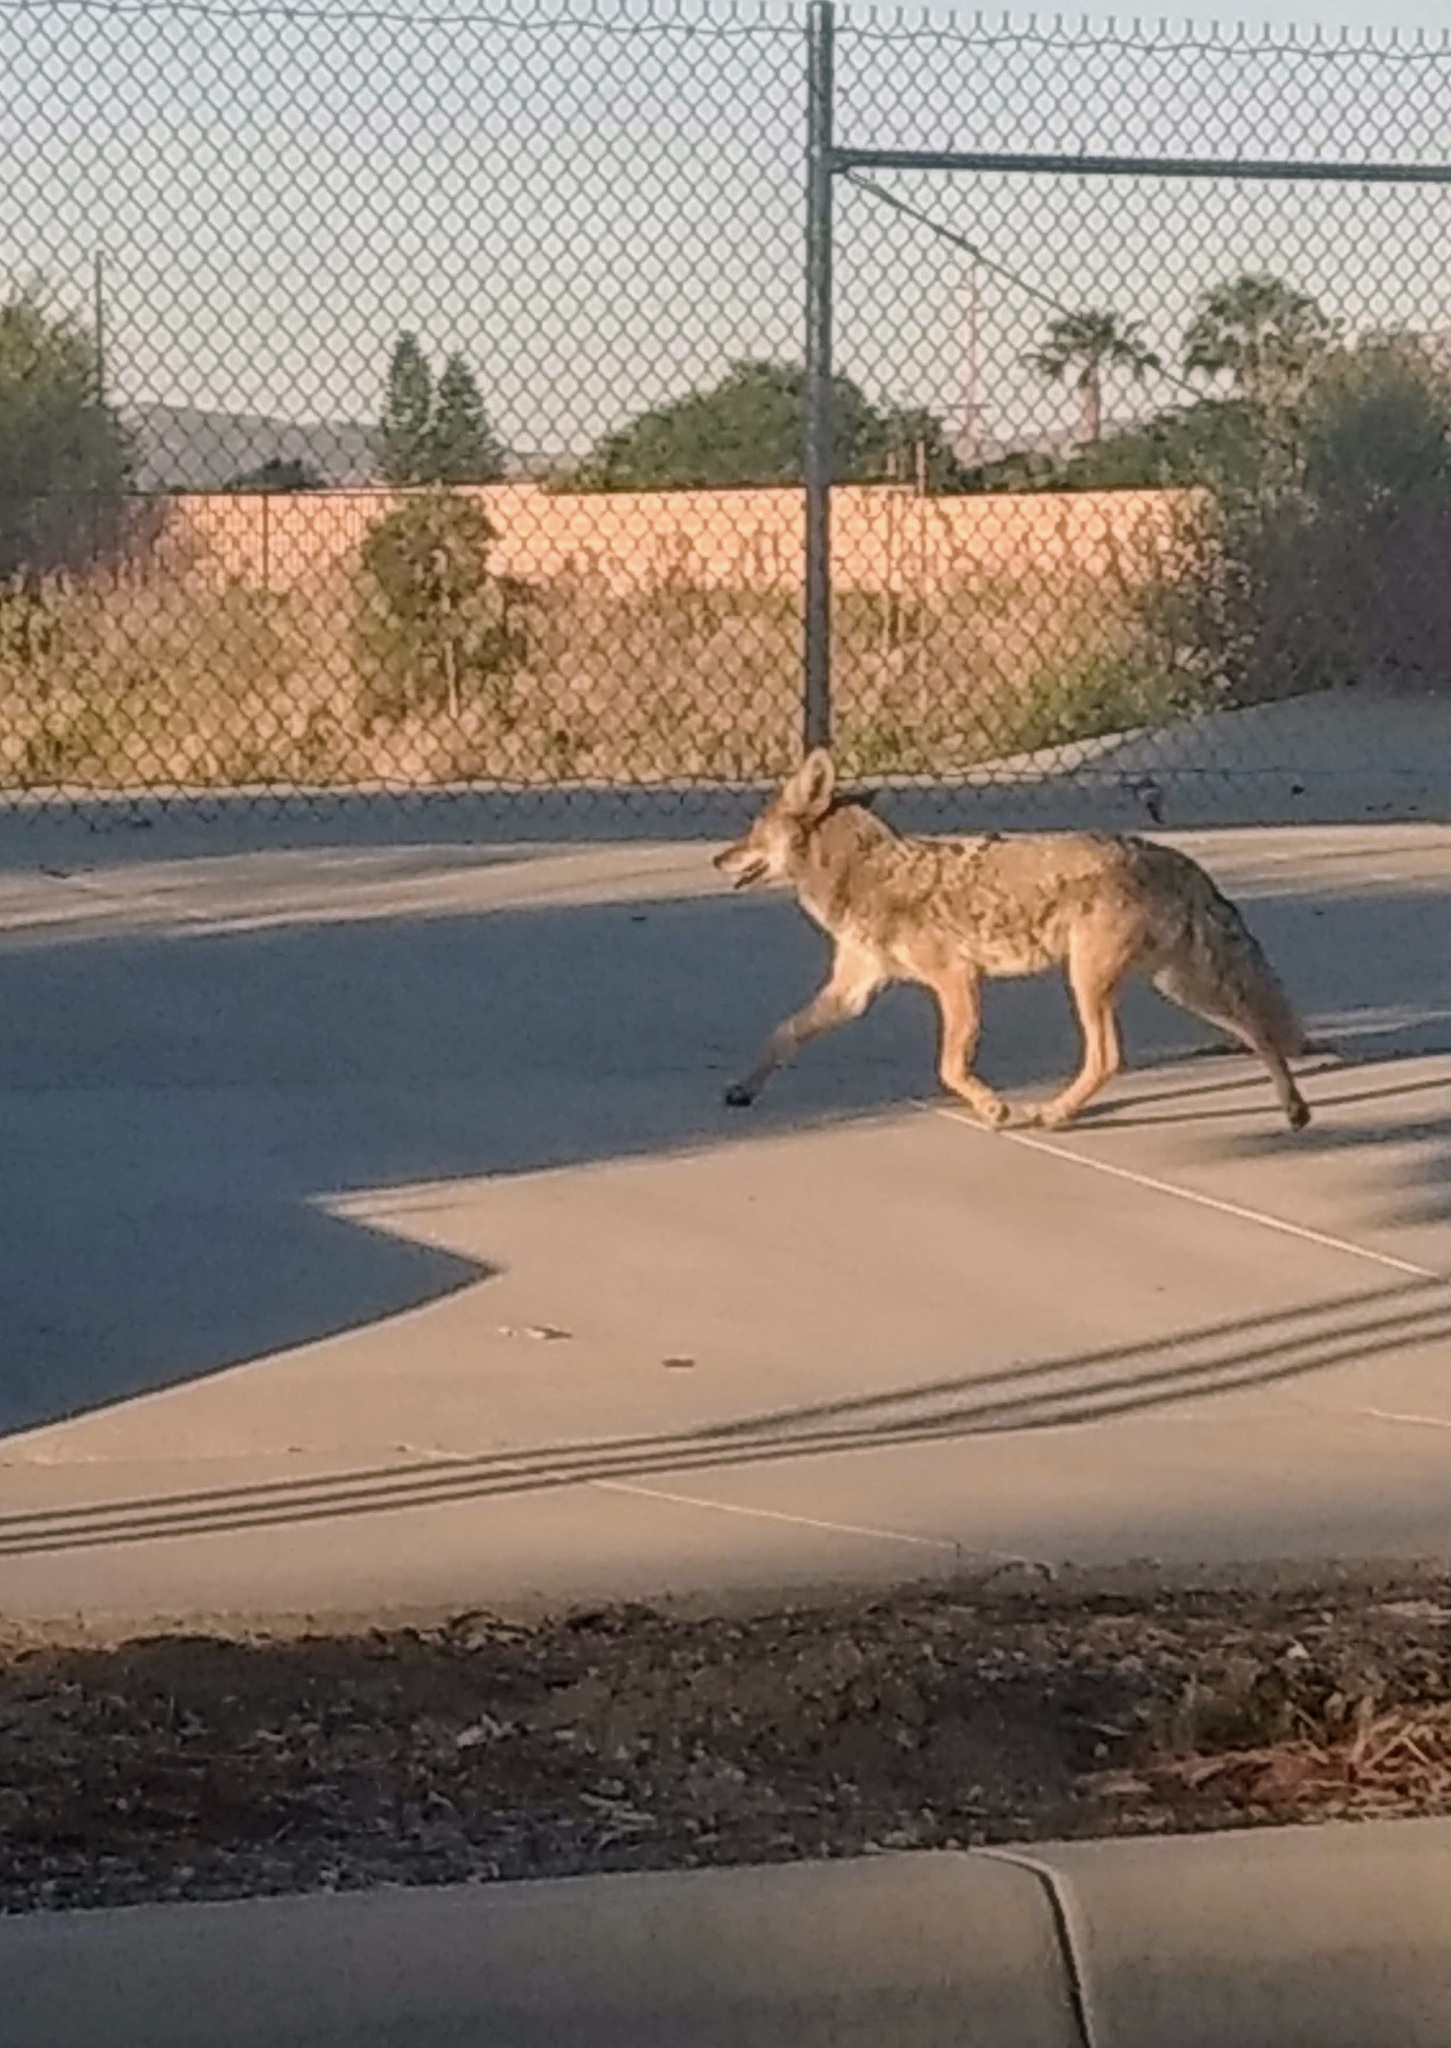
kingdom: Animalia
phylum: Chordata
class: Mammalia
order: Carnivora
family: Canidae
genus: Canis
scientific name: Canis latrans
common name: Coyote
